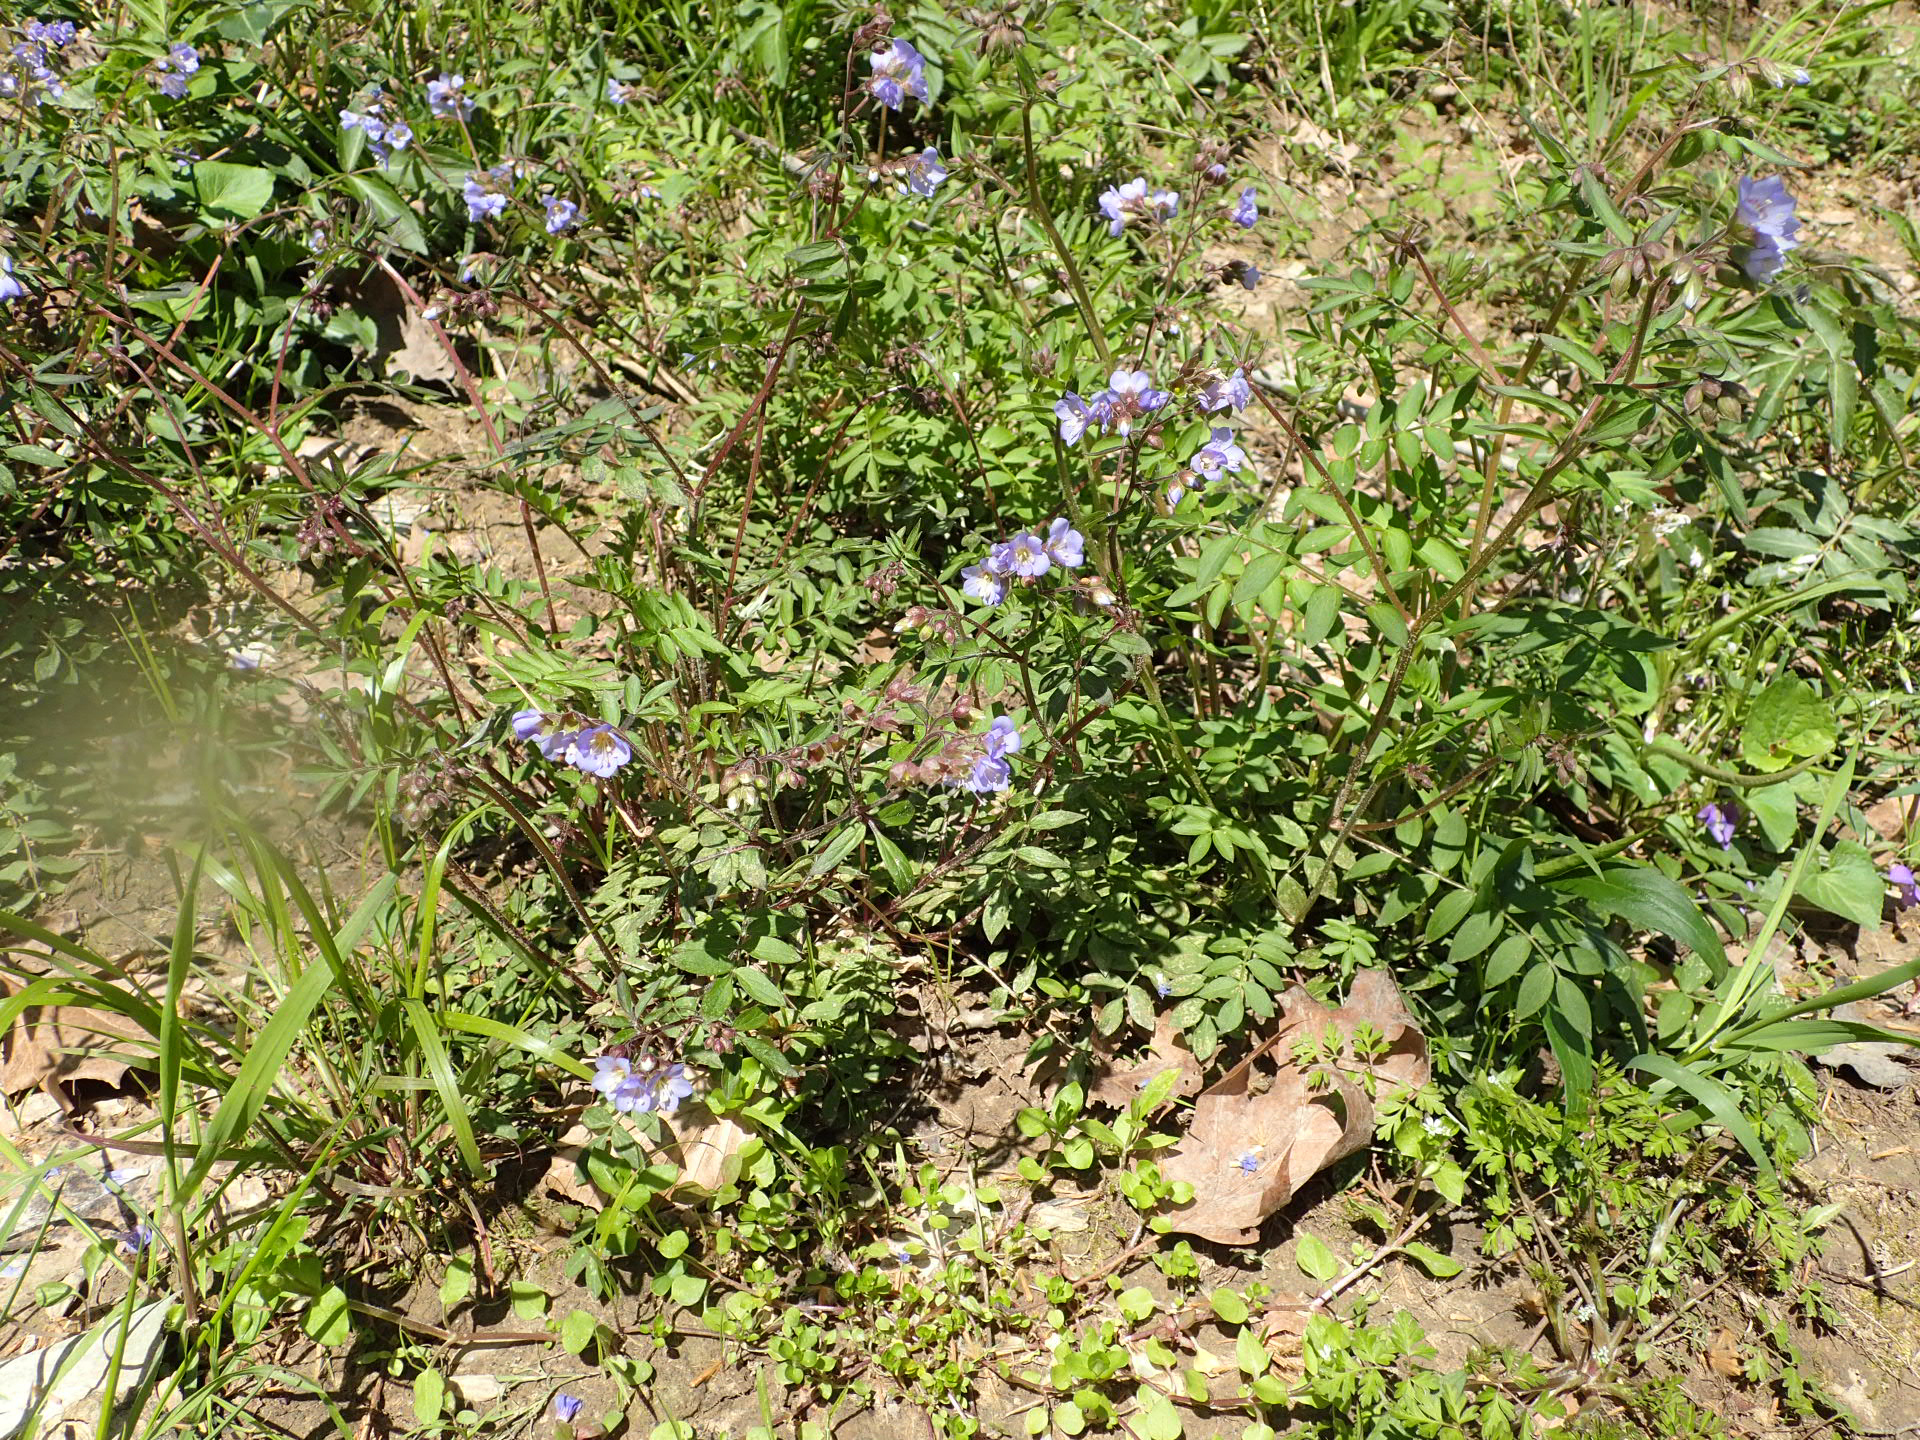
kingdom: Plantae
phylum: Tracheophyta
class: Magnoliopsida
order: Ericales
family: Polemoniaceae
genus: Polemonium
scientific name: Polemonium reptans
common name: Creeping jacob's-ladder
